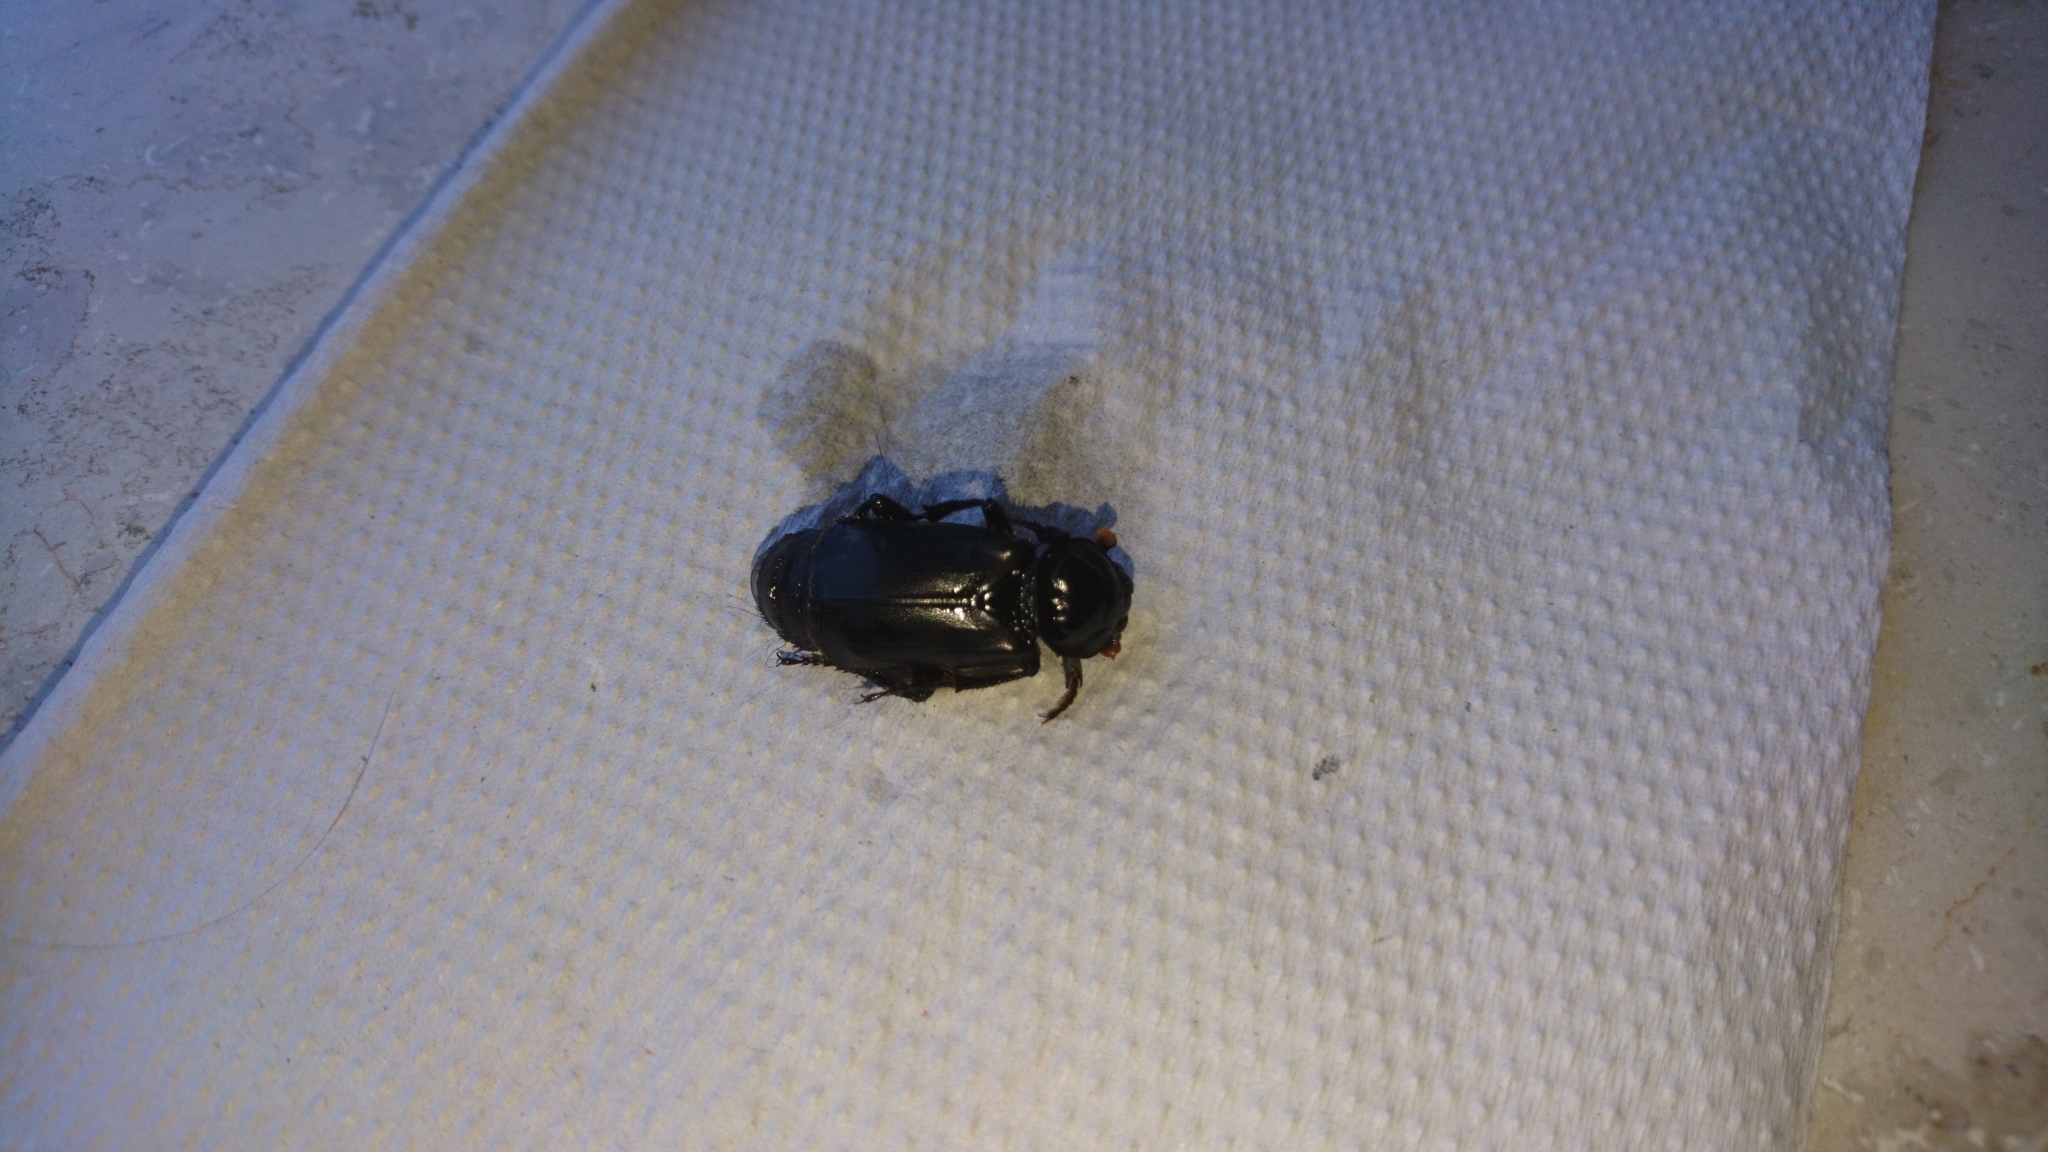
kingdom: Animalia
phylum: Arthropoda
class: Insecta
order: Coleoptera
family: Staphylinidae
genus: Nicrophorus
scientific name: Nicrophorus humator
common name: Black sexton beetle
